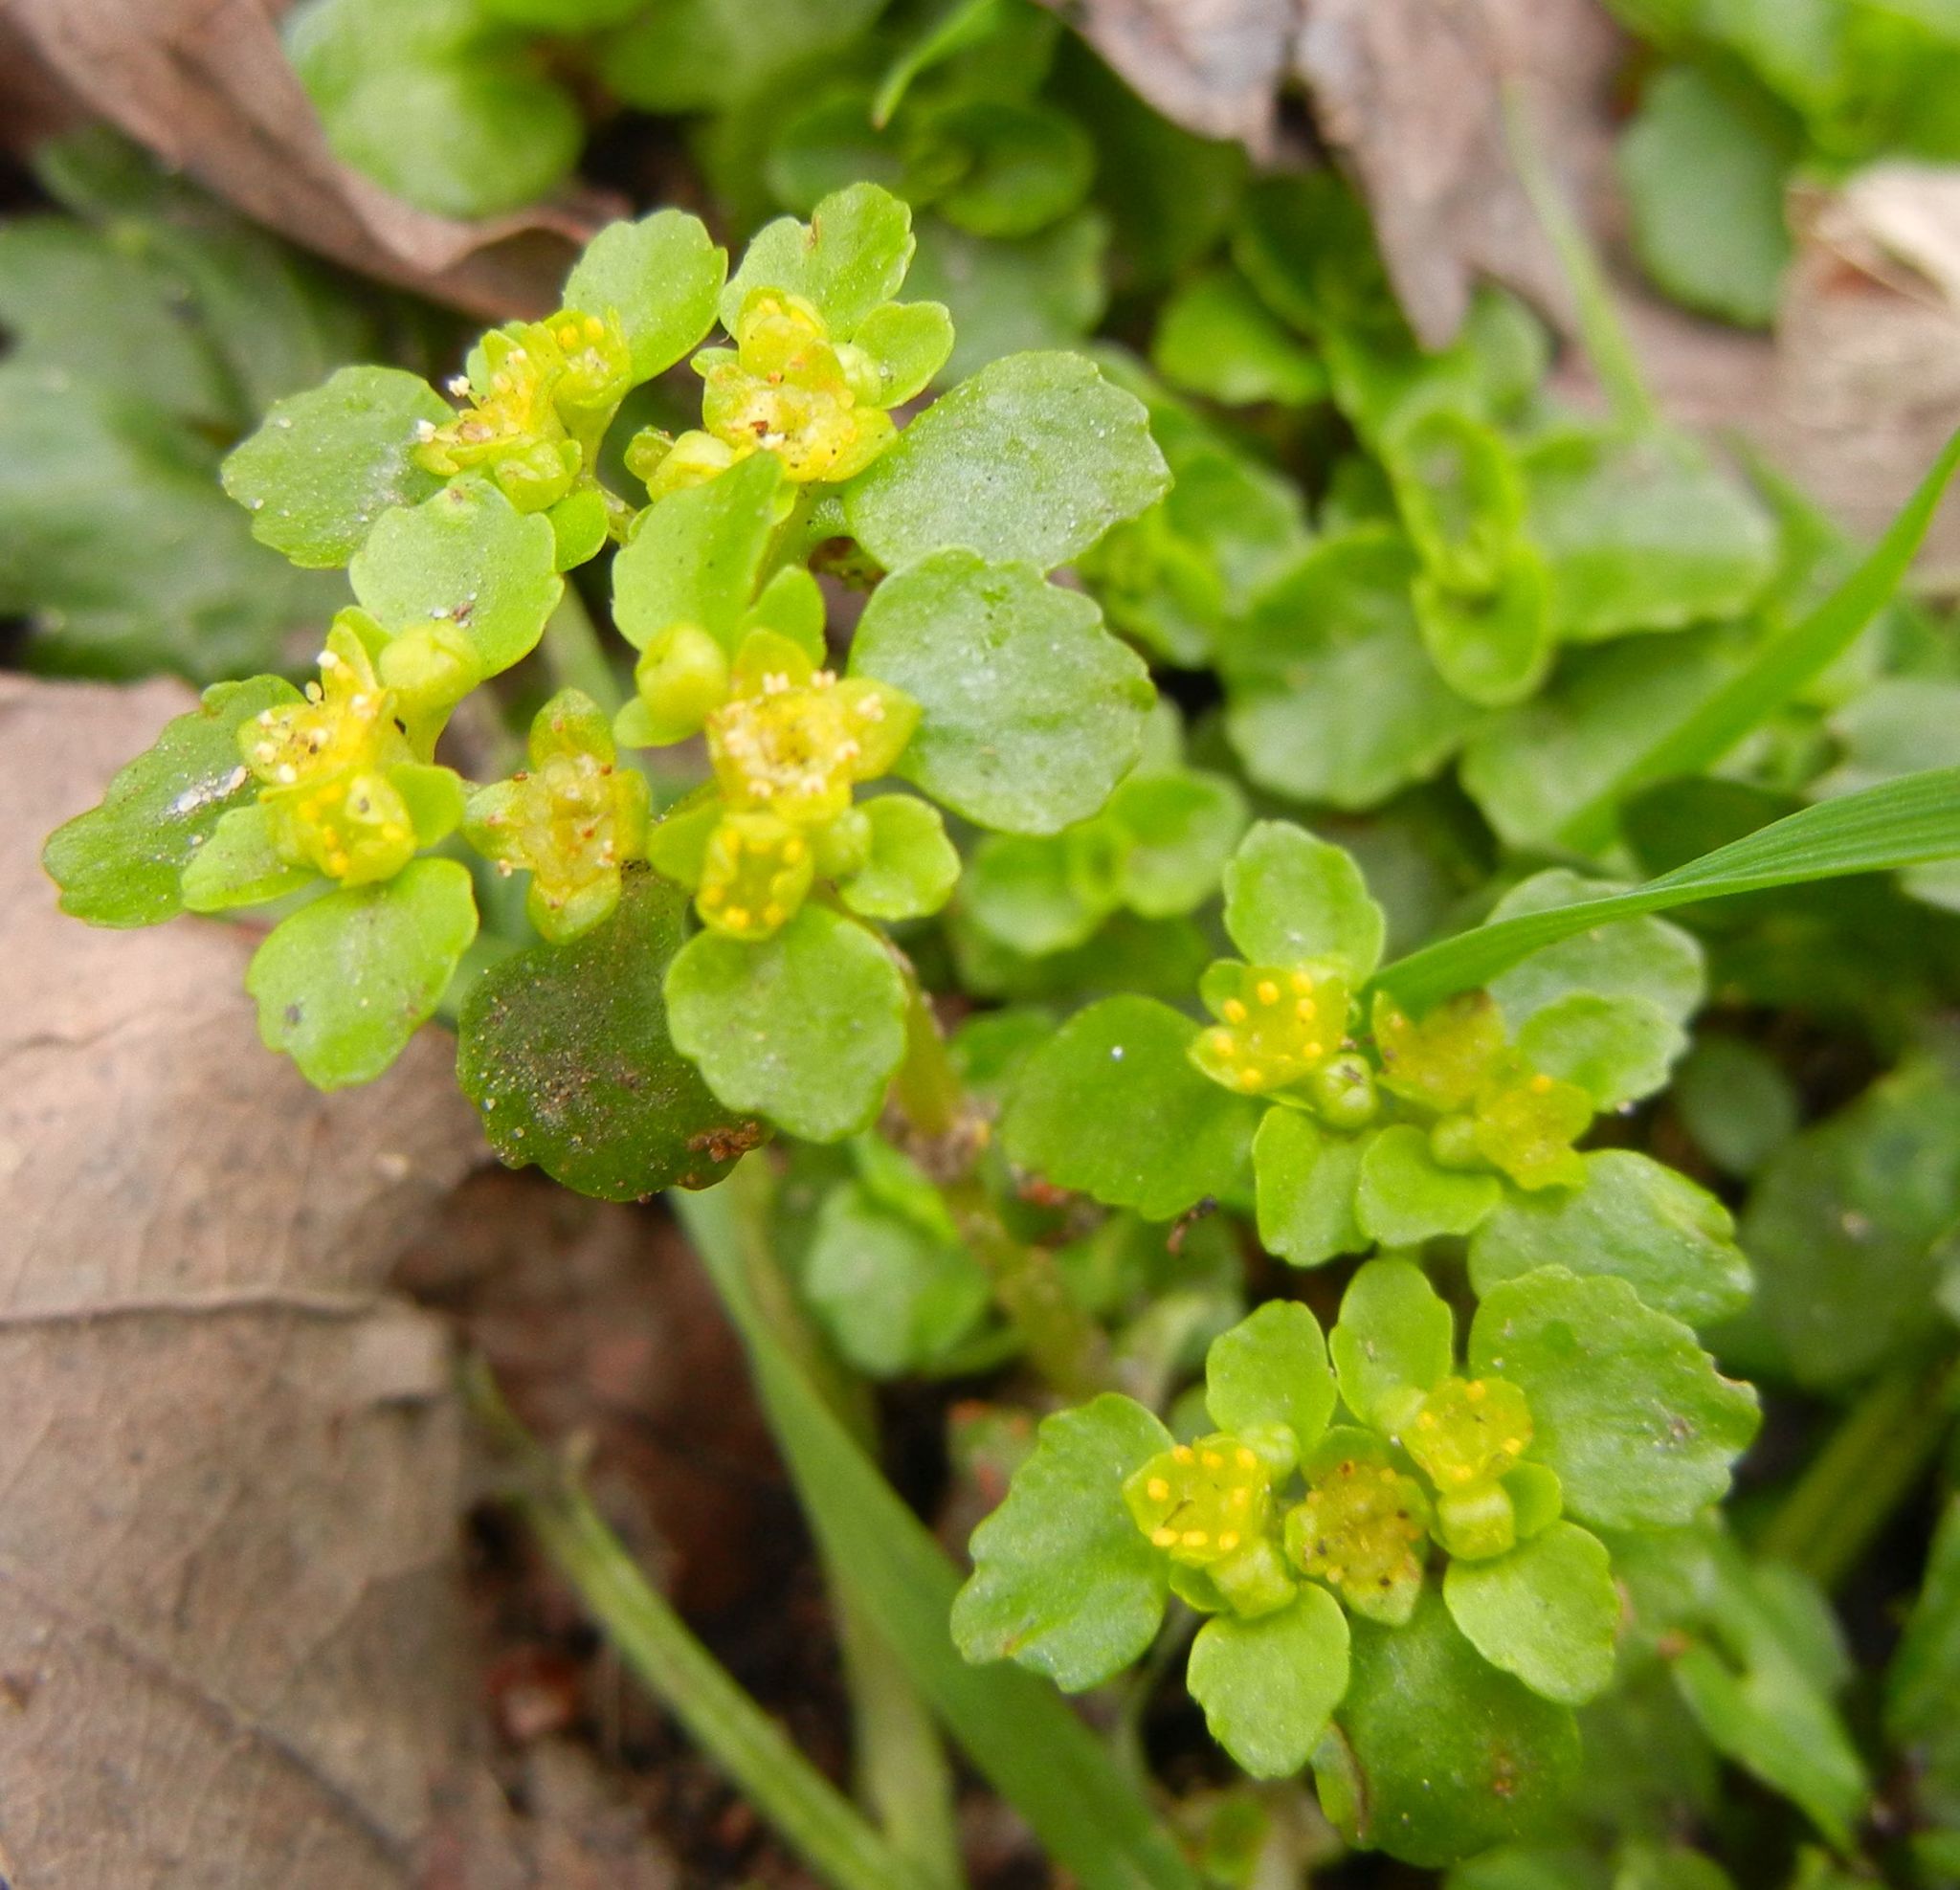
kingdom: Plantae
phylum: Tracheophyta
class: Magnoliopsida
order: Saxifragales
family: Saxifragaceae
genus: Chrysosplenium
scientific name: Chrysosplenium oppositifolium
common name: Opposite-leaved golden-saxifrage
